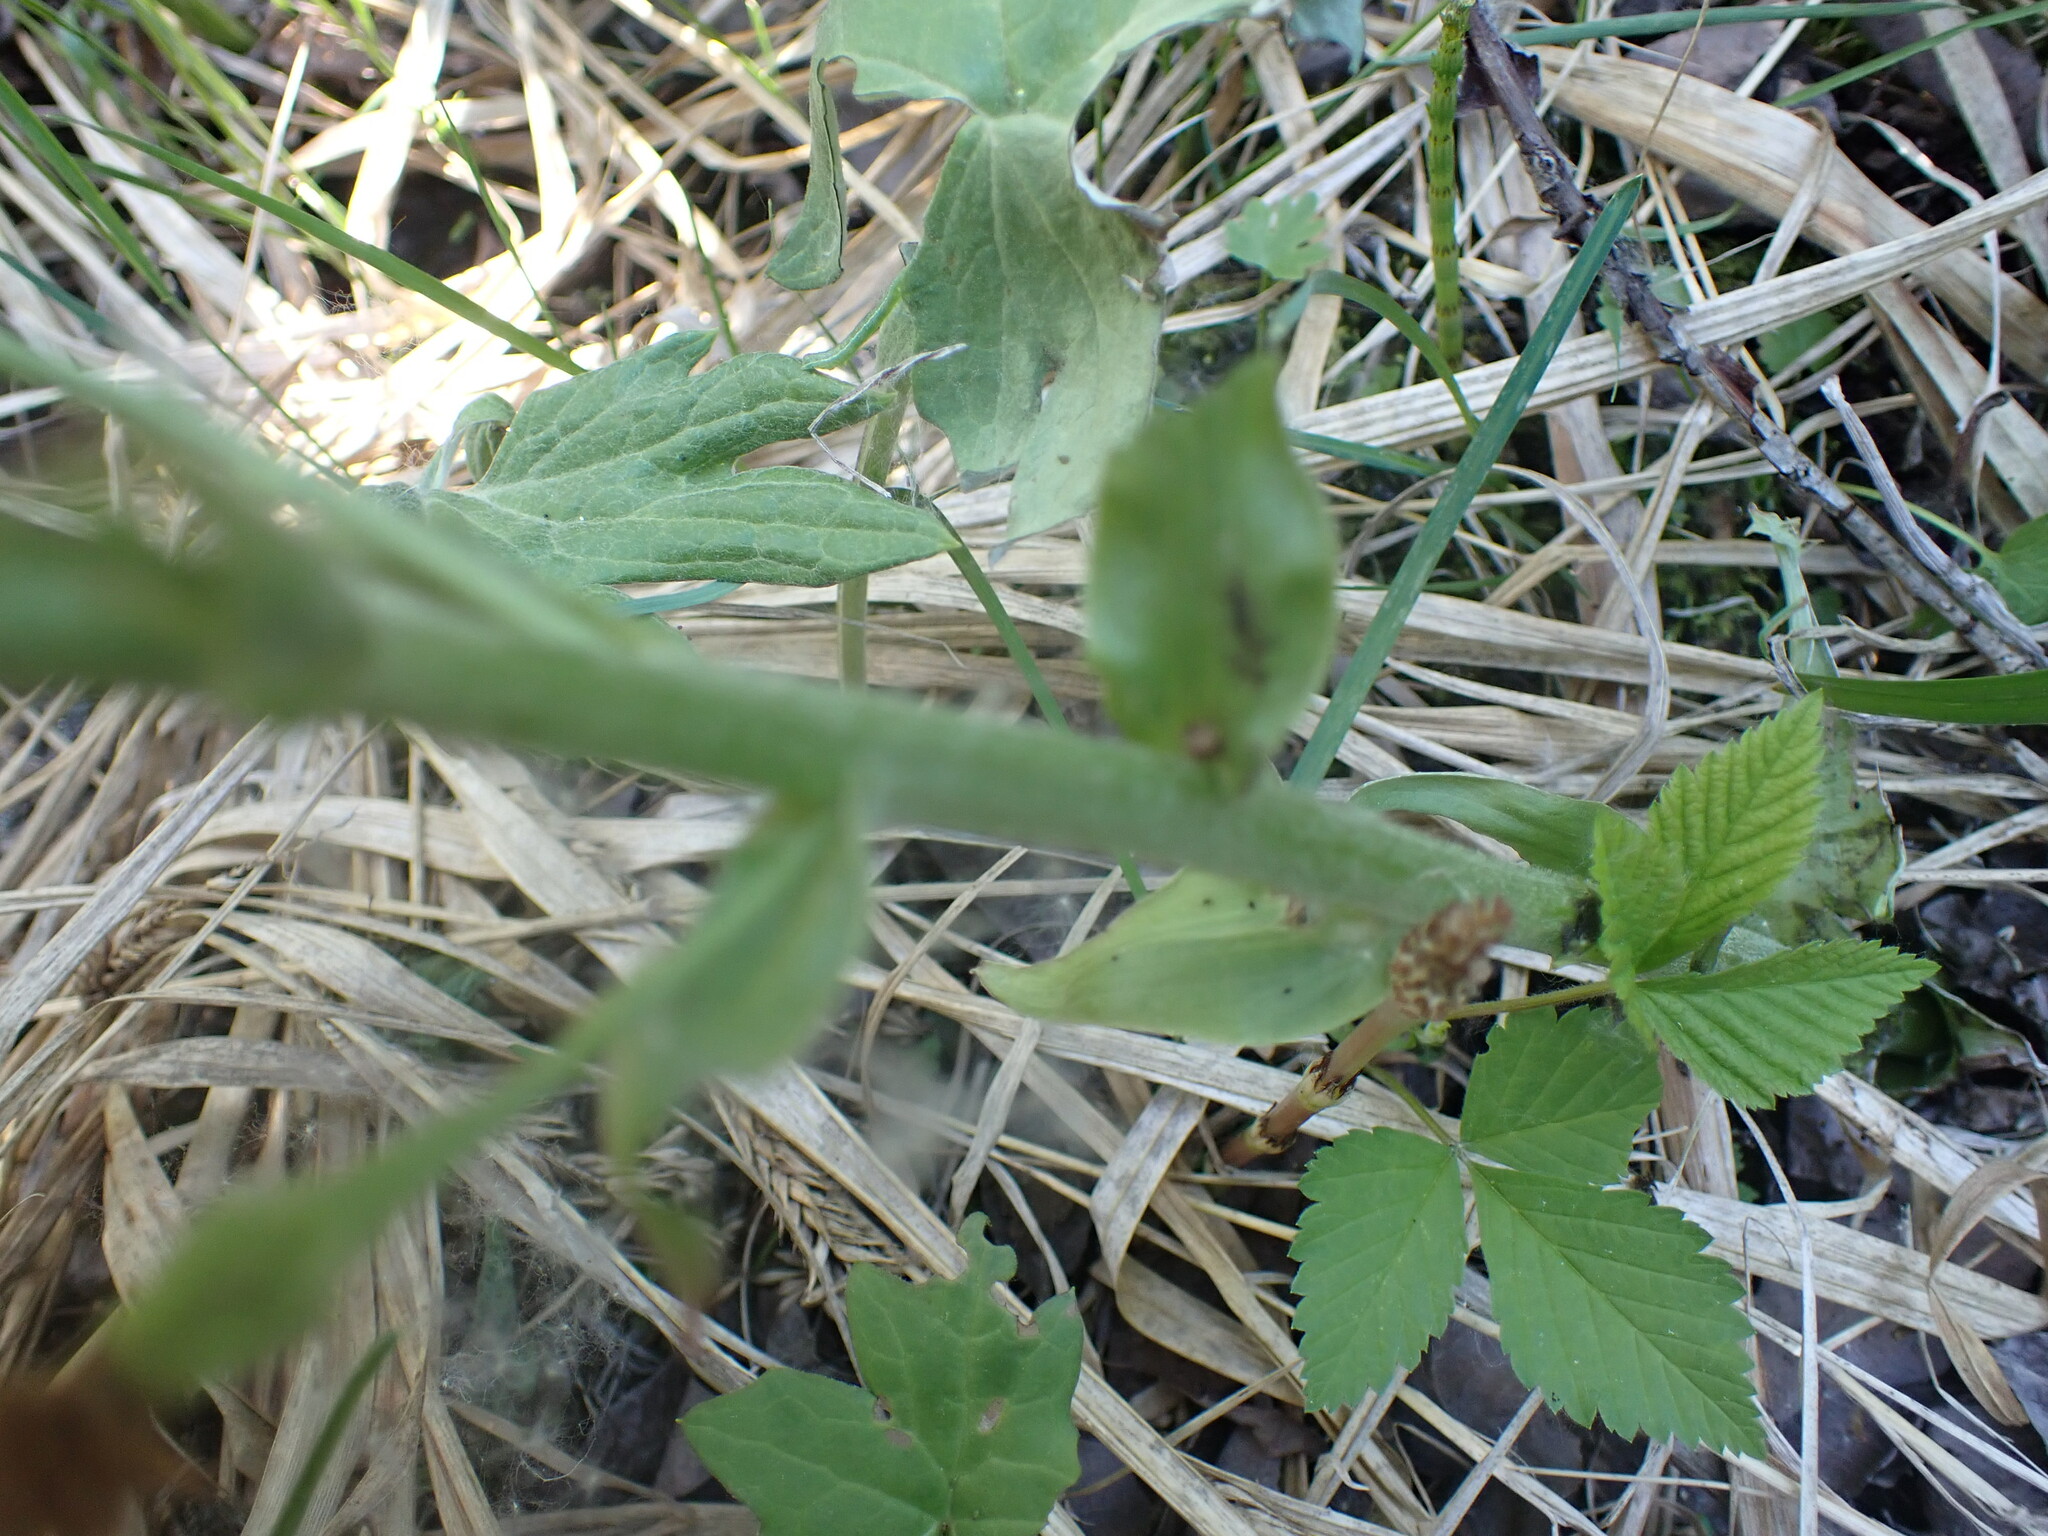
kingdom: Plantae
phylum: Tracheophyta
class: Magnoliopsida
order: Asterales
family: Asteraceae
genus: Petasites
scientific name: Petasites frigidus
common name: Arctic butterbur
